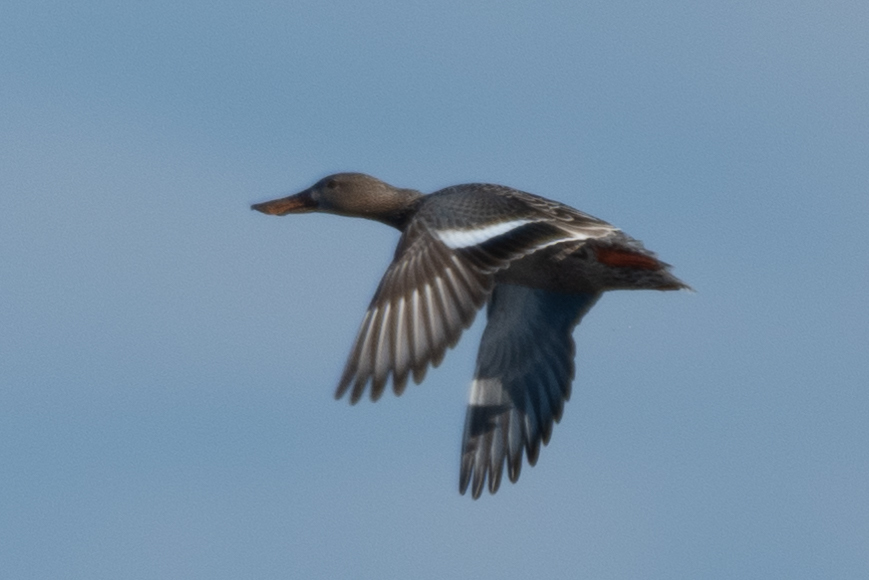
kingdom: Animalia
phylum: Chordata
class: Aves
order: Anseriformes
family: Anatidae
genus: Spatula
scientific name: Spatula clypeata
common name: Northern shoveler
